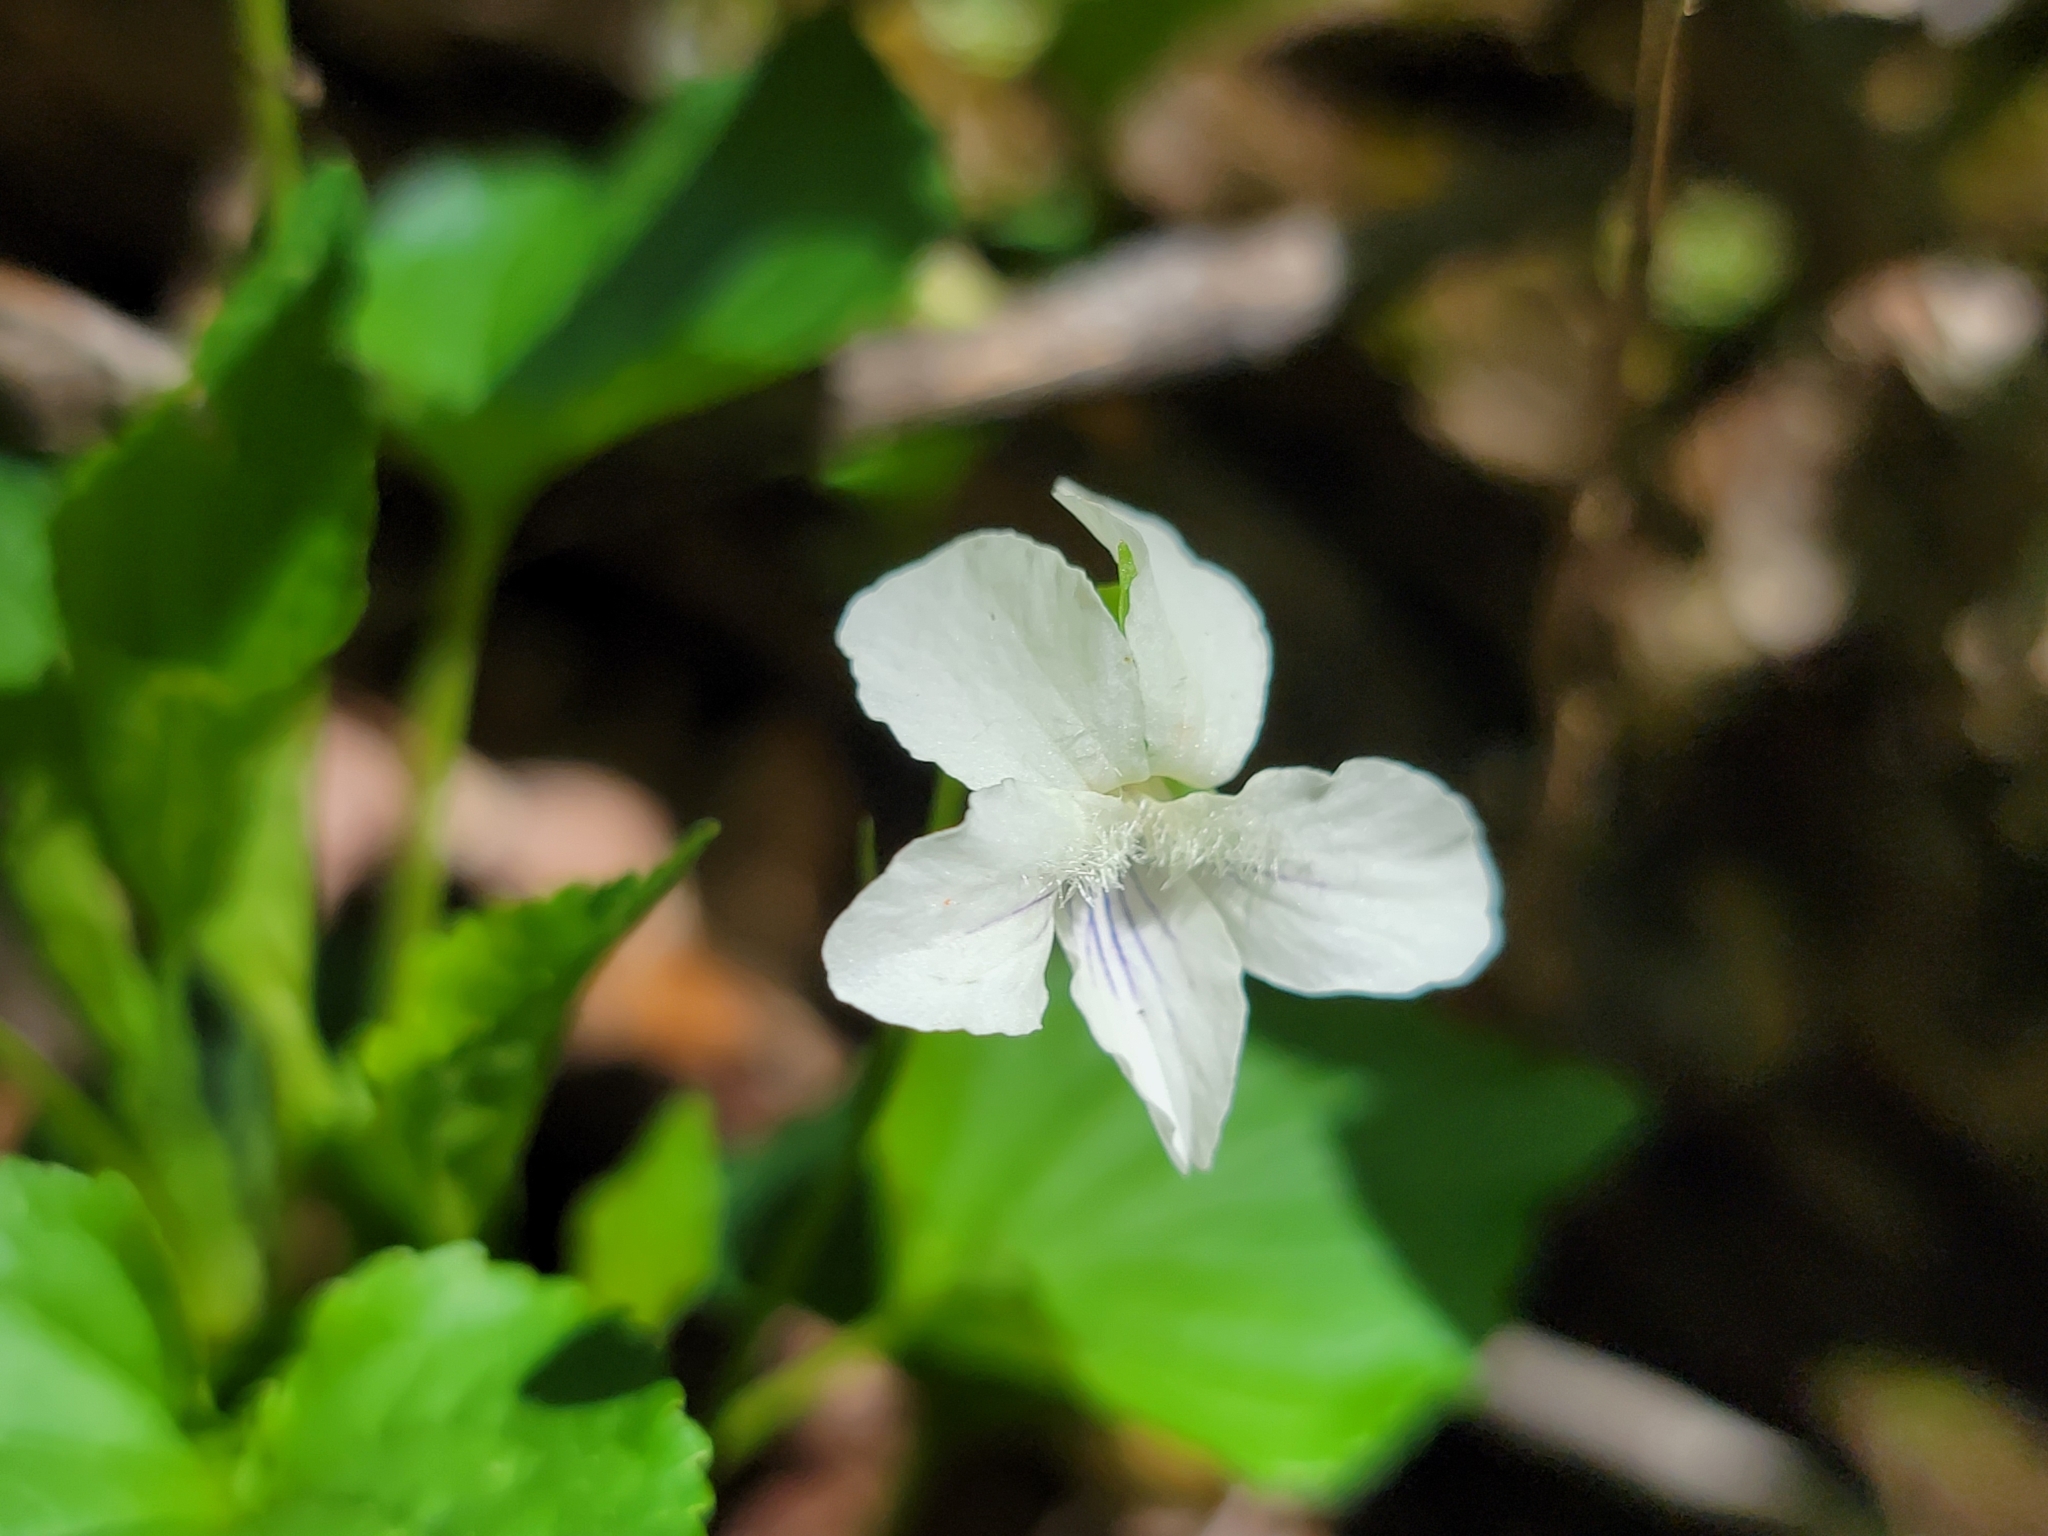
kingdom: Plantae
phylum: Tracheophyta
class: Magnoliopsida
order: Malpighiales
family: Violaceae
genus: Viola
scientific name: Viola striata
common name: Cream violet
